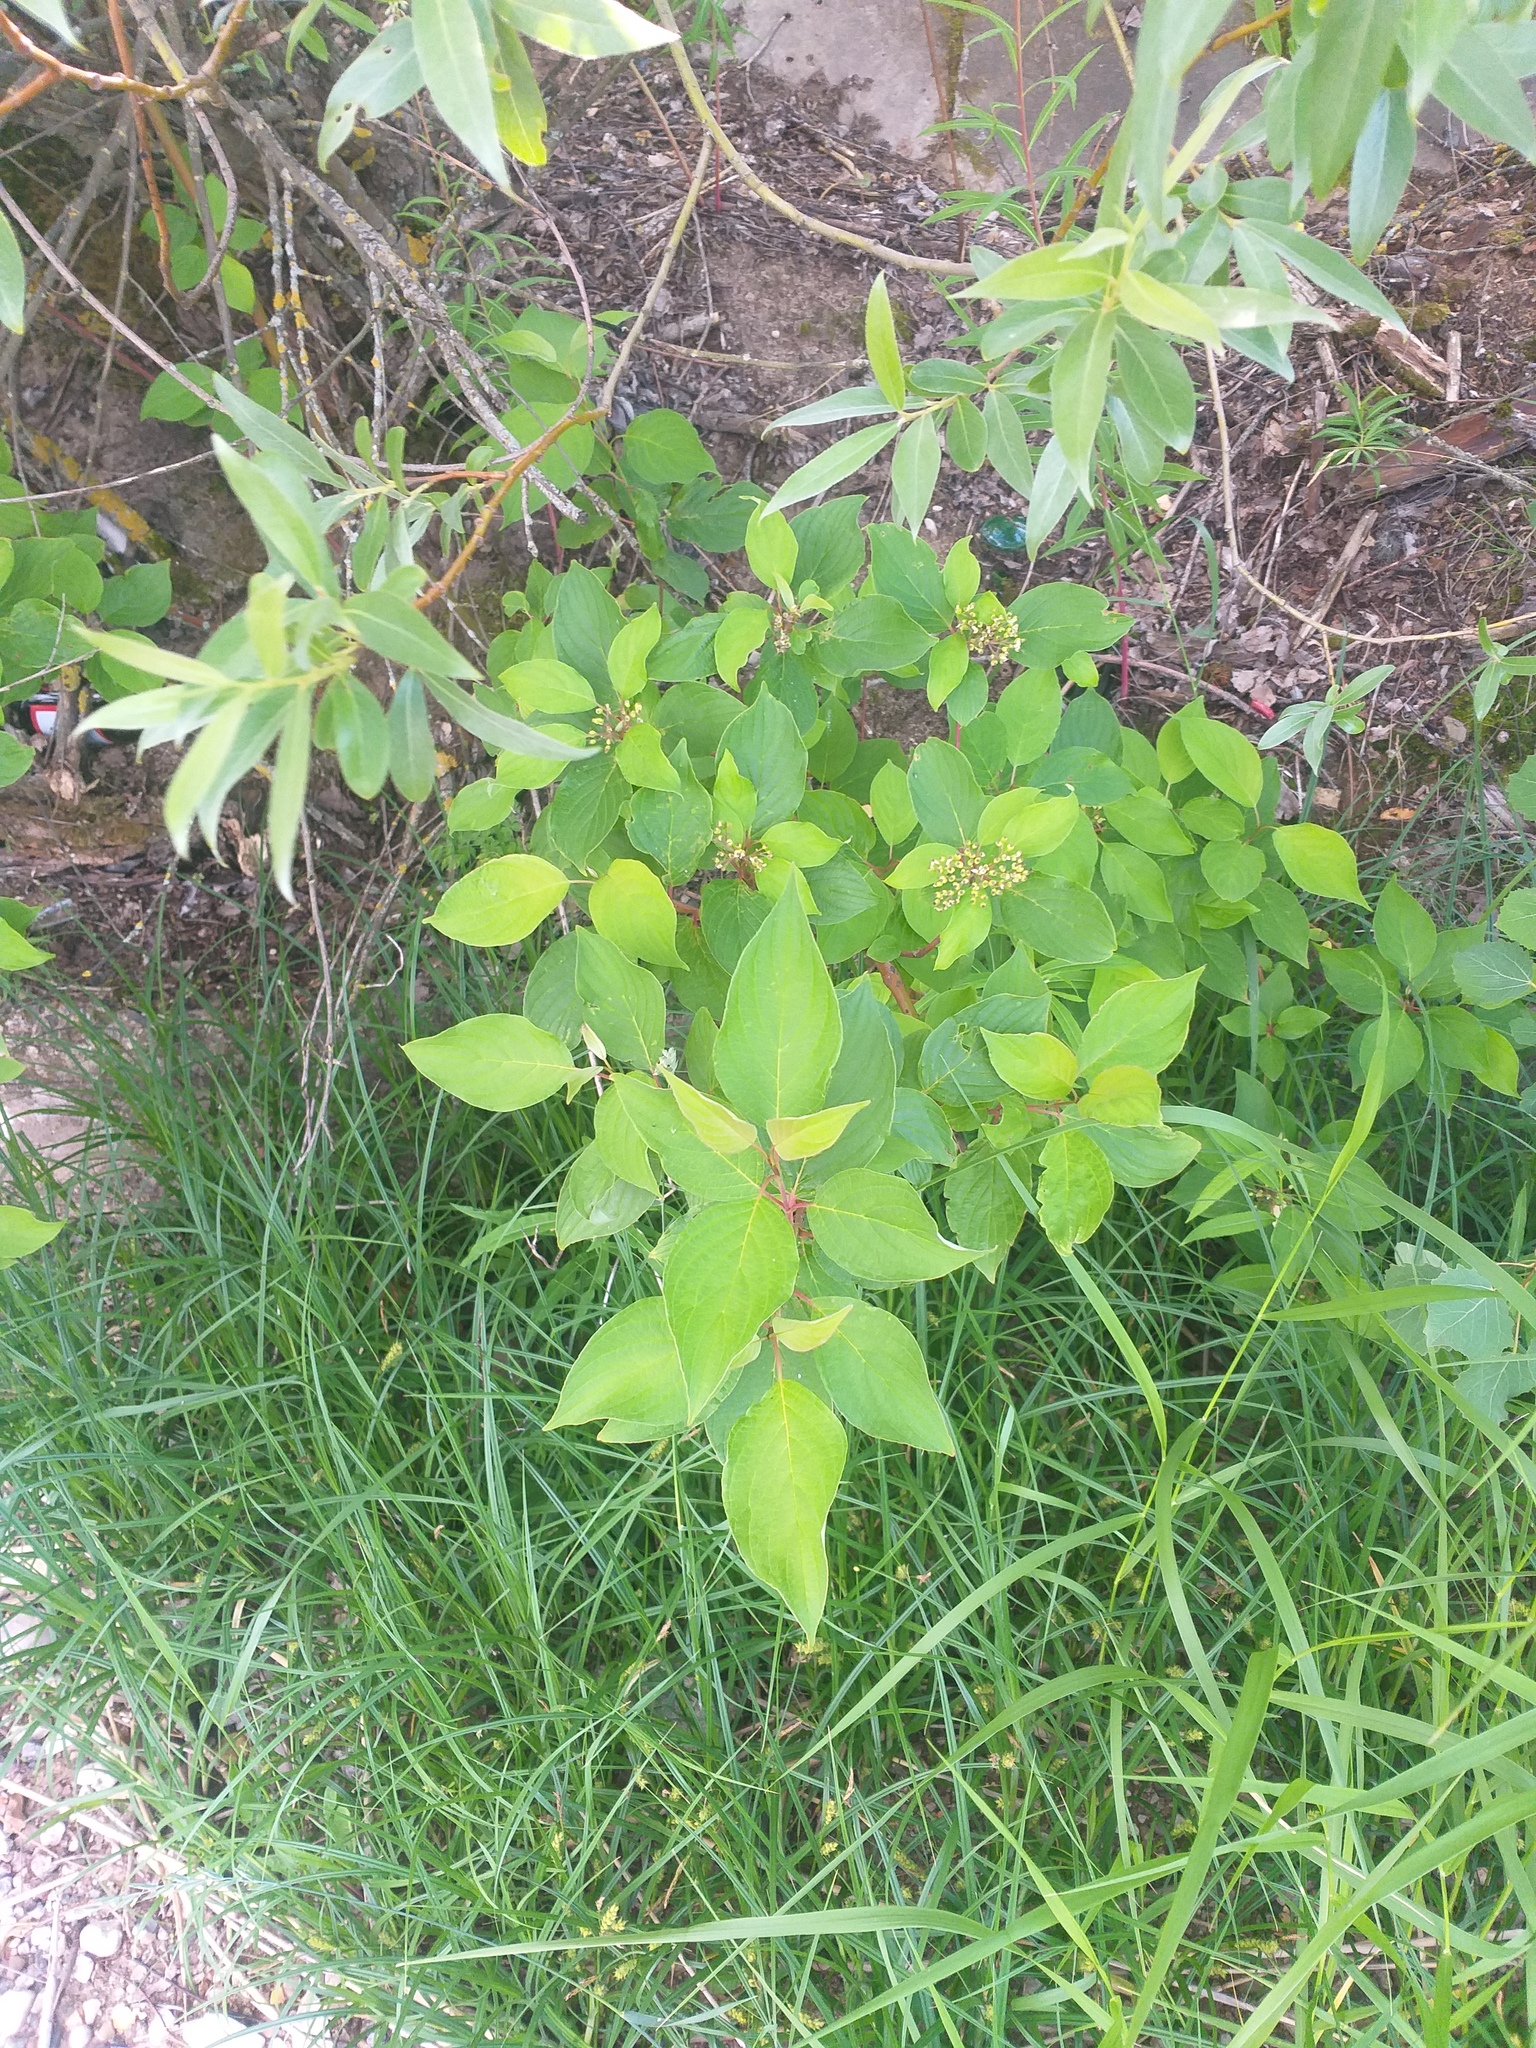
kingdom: Plantae
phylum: Tracheophyta
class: Magnoliopsida
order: Cornales
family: Cornaceae
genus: Cornus
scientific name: Cornus alba
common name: White dogwood
